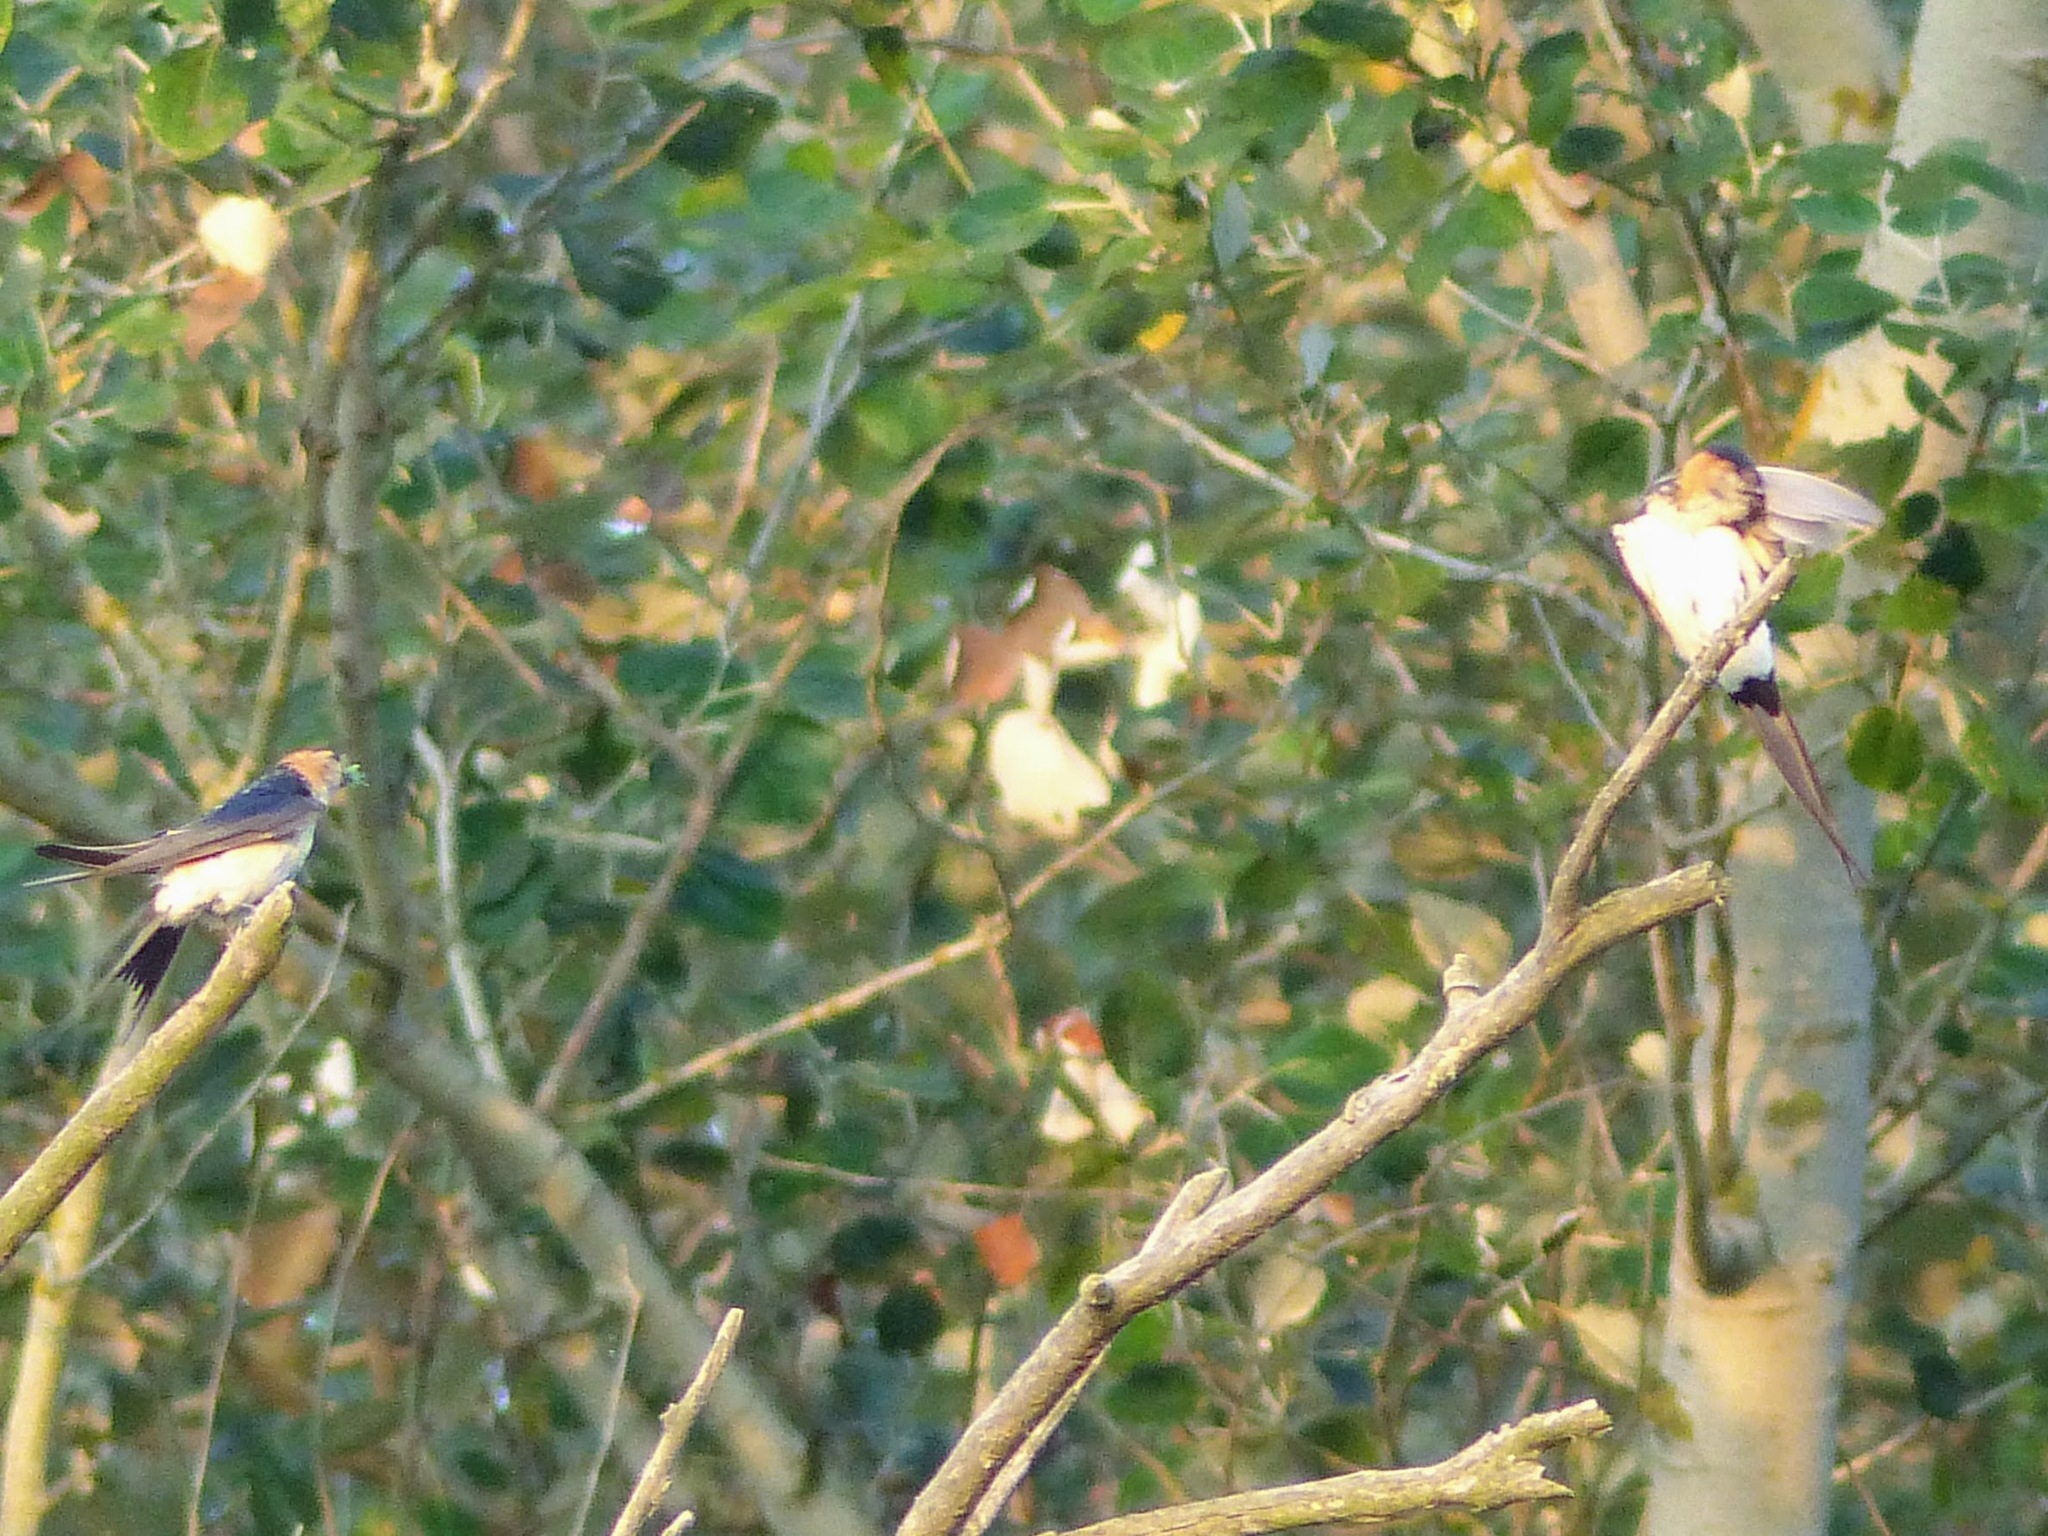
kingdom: Animalia
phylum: Chordata
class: Aves
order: Passeriformes
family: Hirundinidae
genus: Cecropis
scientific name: Cecropis daurica
